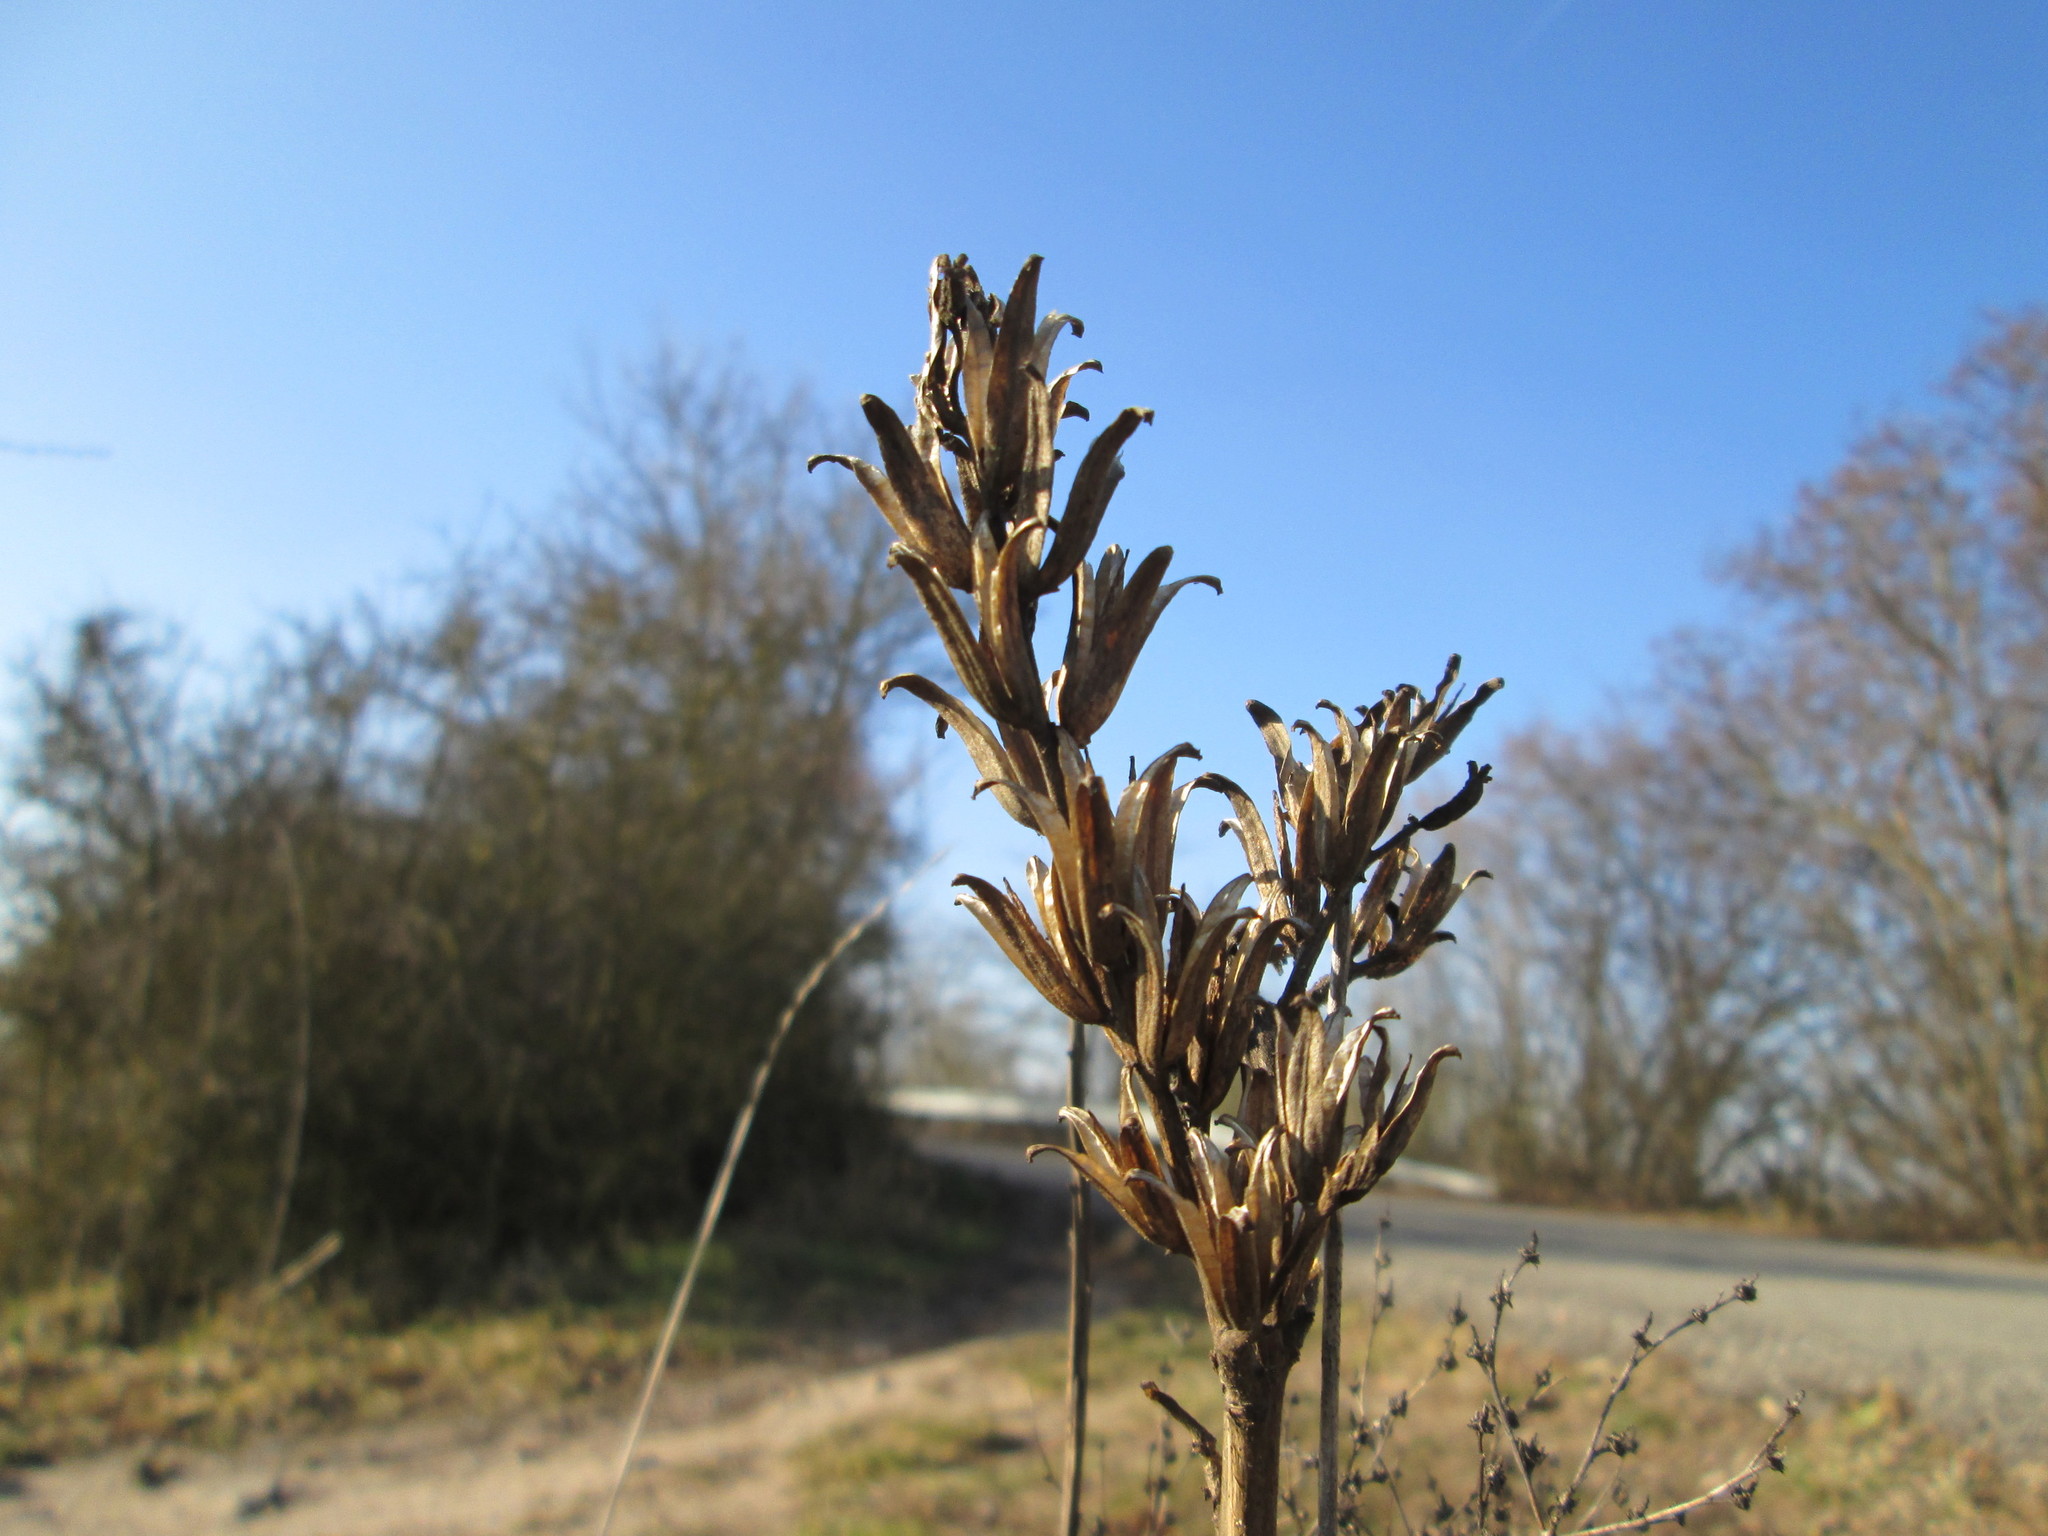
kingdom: Plantae
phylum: Tracheophyta
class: Magnoliopsida
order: Myrtales
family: Onagraceae
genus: Oenothera
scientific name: Oenothera biennis
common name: Common evening-primrose
